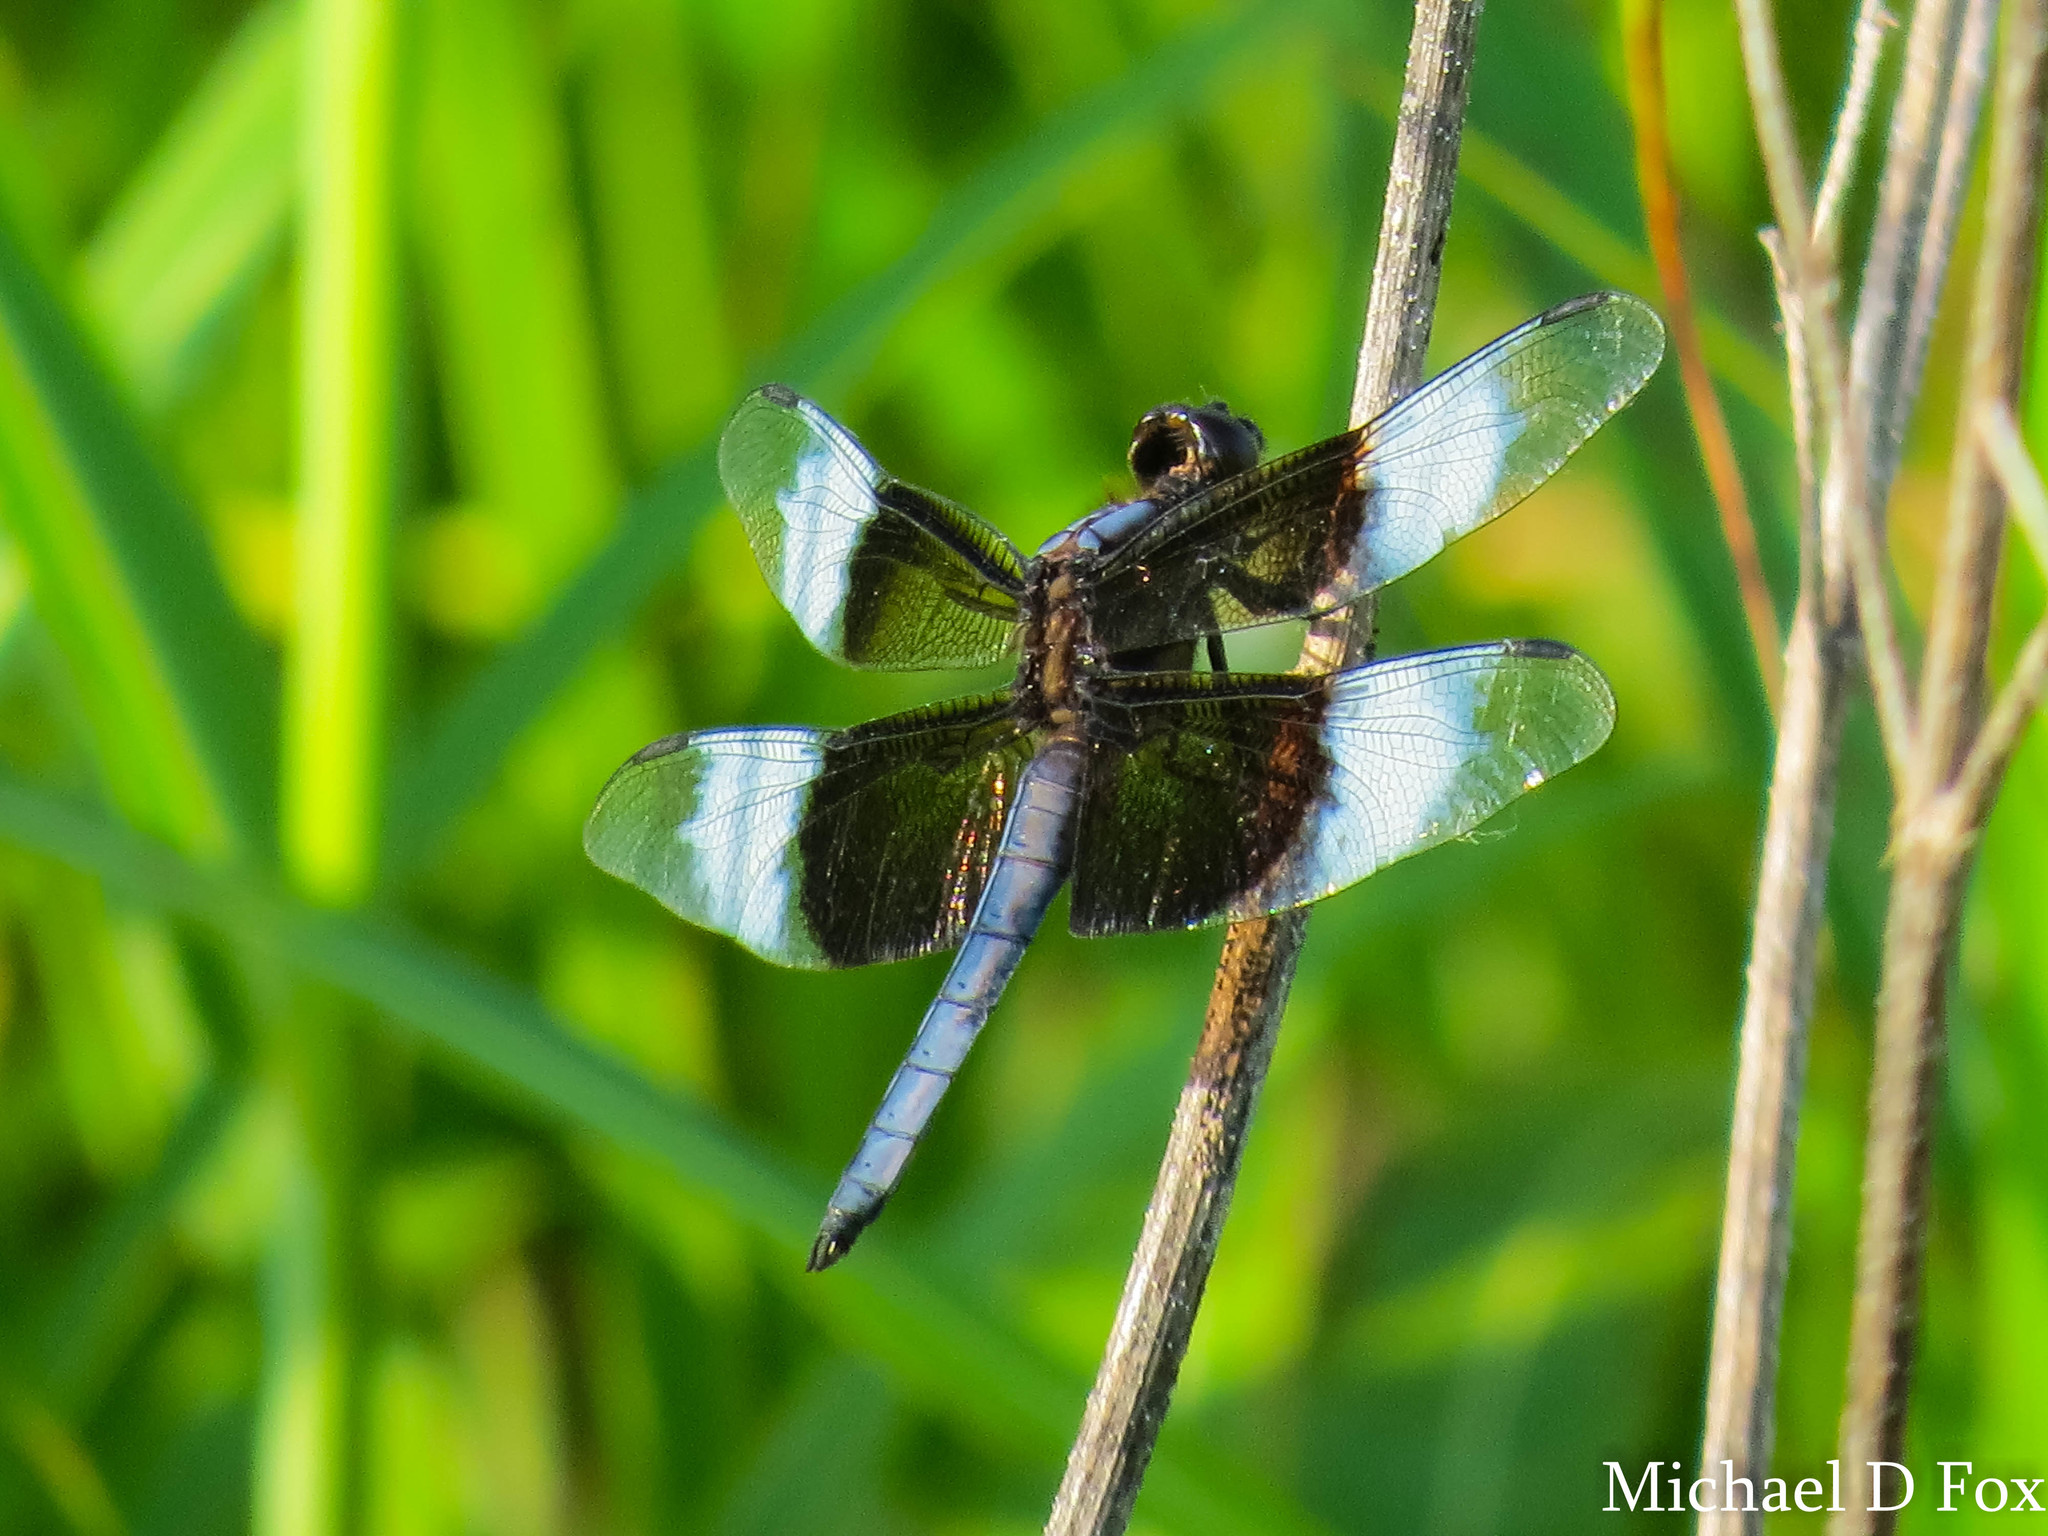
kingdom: Animalia
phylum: Arthropoda
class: Insecta
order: Odonata
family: Libellulidae
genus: Libellula
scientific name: Libellula luctuosa
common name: Widow skimmer
